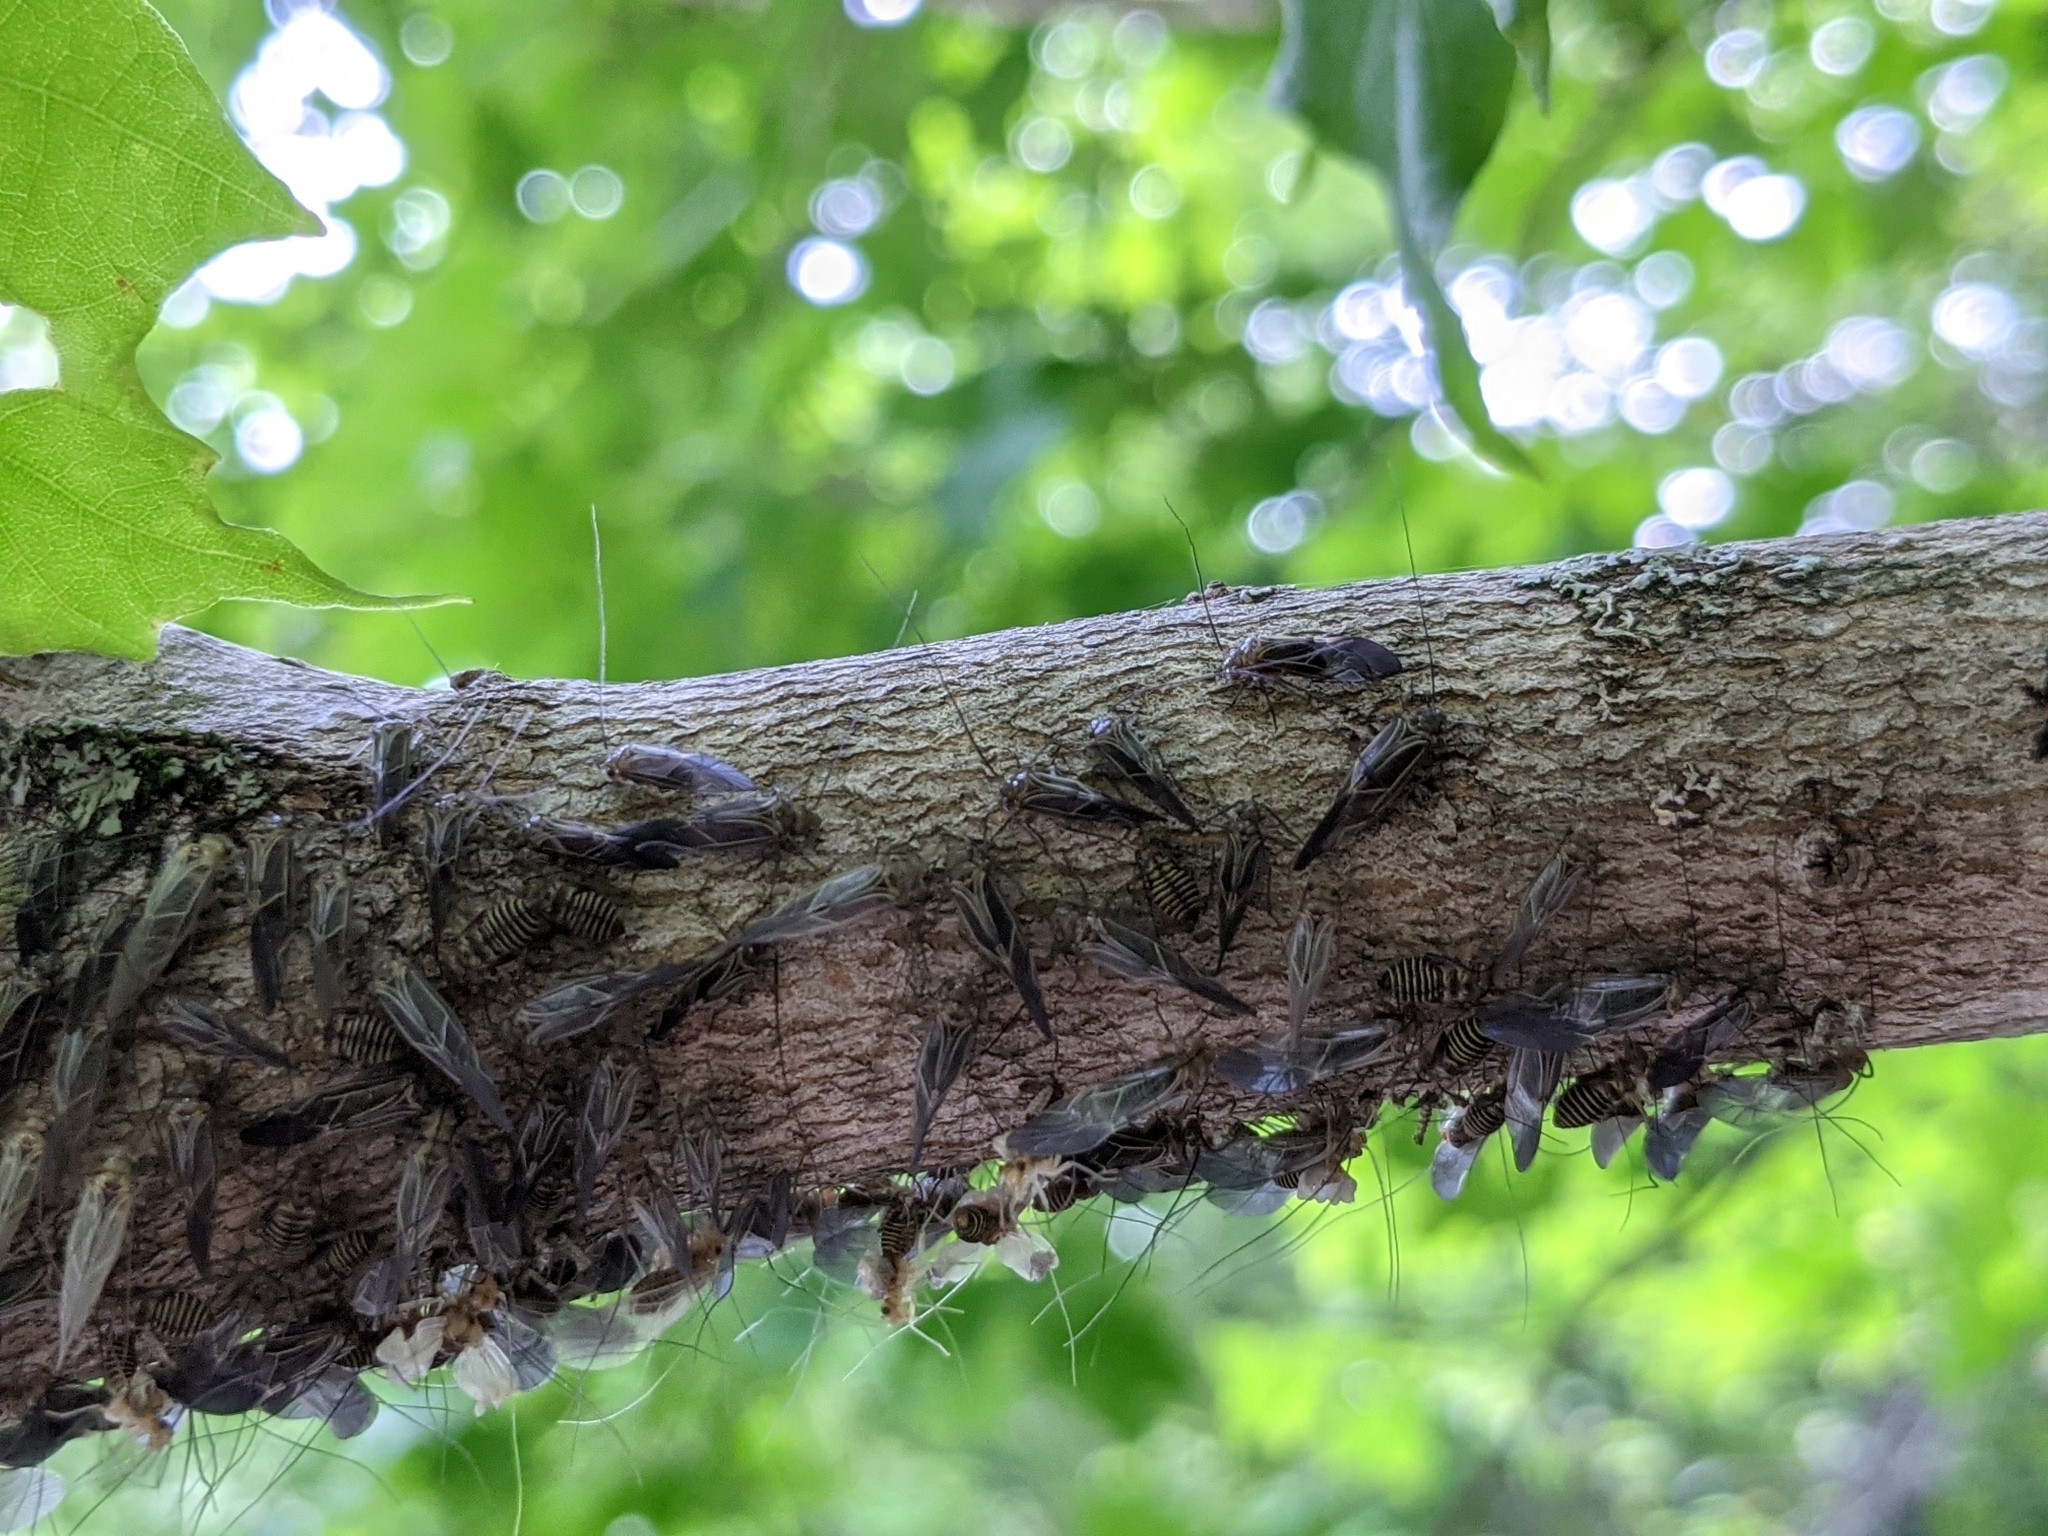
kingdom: Animalia
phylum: Arthropoda
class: Insecta
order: Psocodea
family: Psocidae
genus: Cerastipsocus
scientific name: Cerastipsocus venosus
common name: Tree cattle
